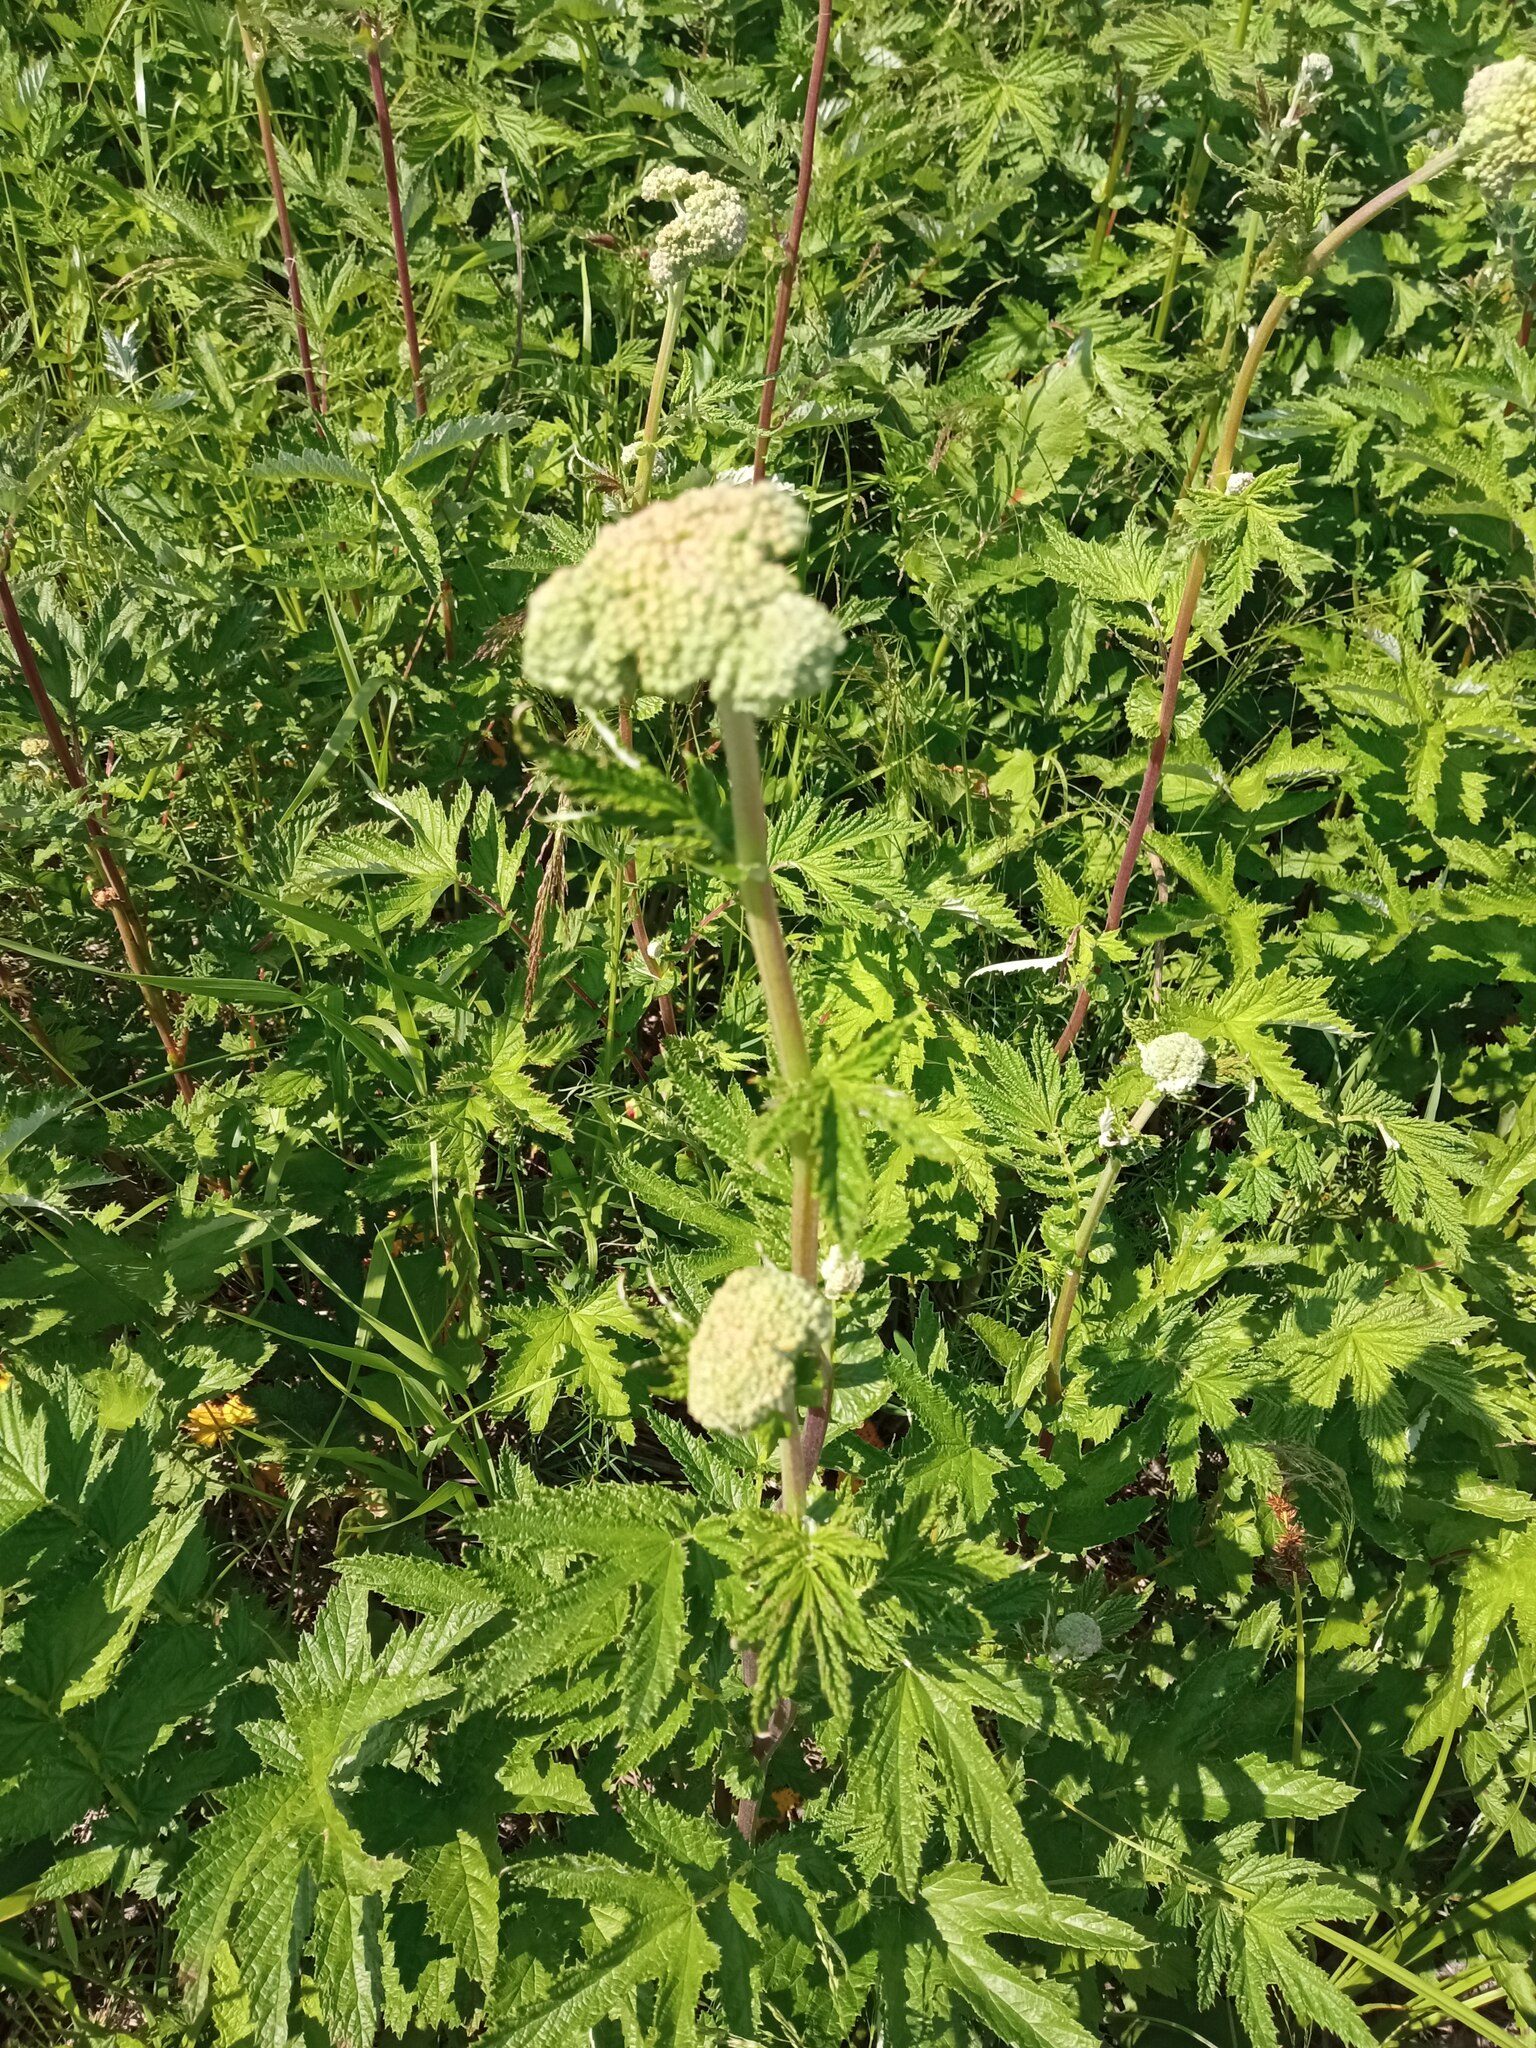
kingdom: Plantae
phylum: Tracheophyta
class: Magnoliopsida
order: Rosales
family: Rosaceae
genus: Filipendula
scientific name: Filipendula ulmaria
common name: Meadowsweet
